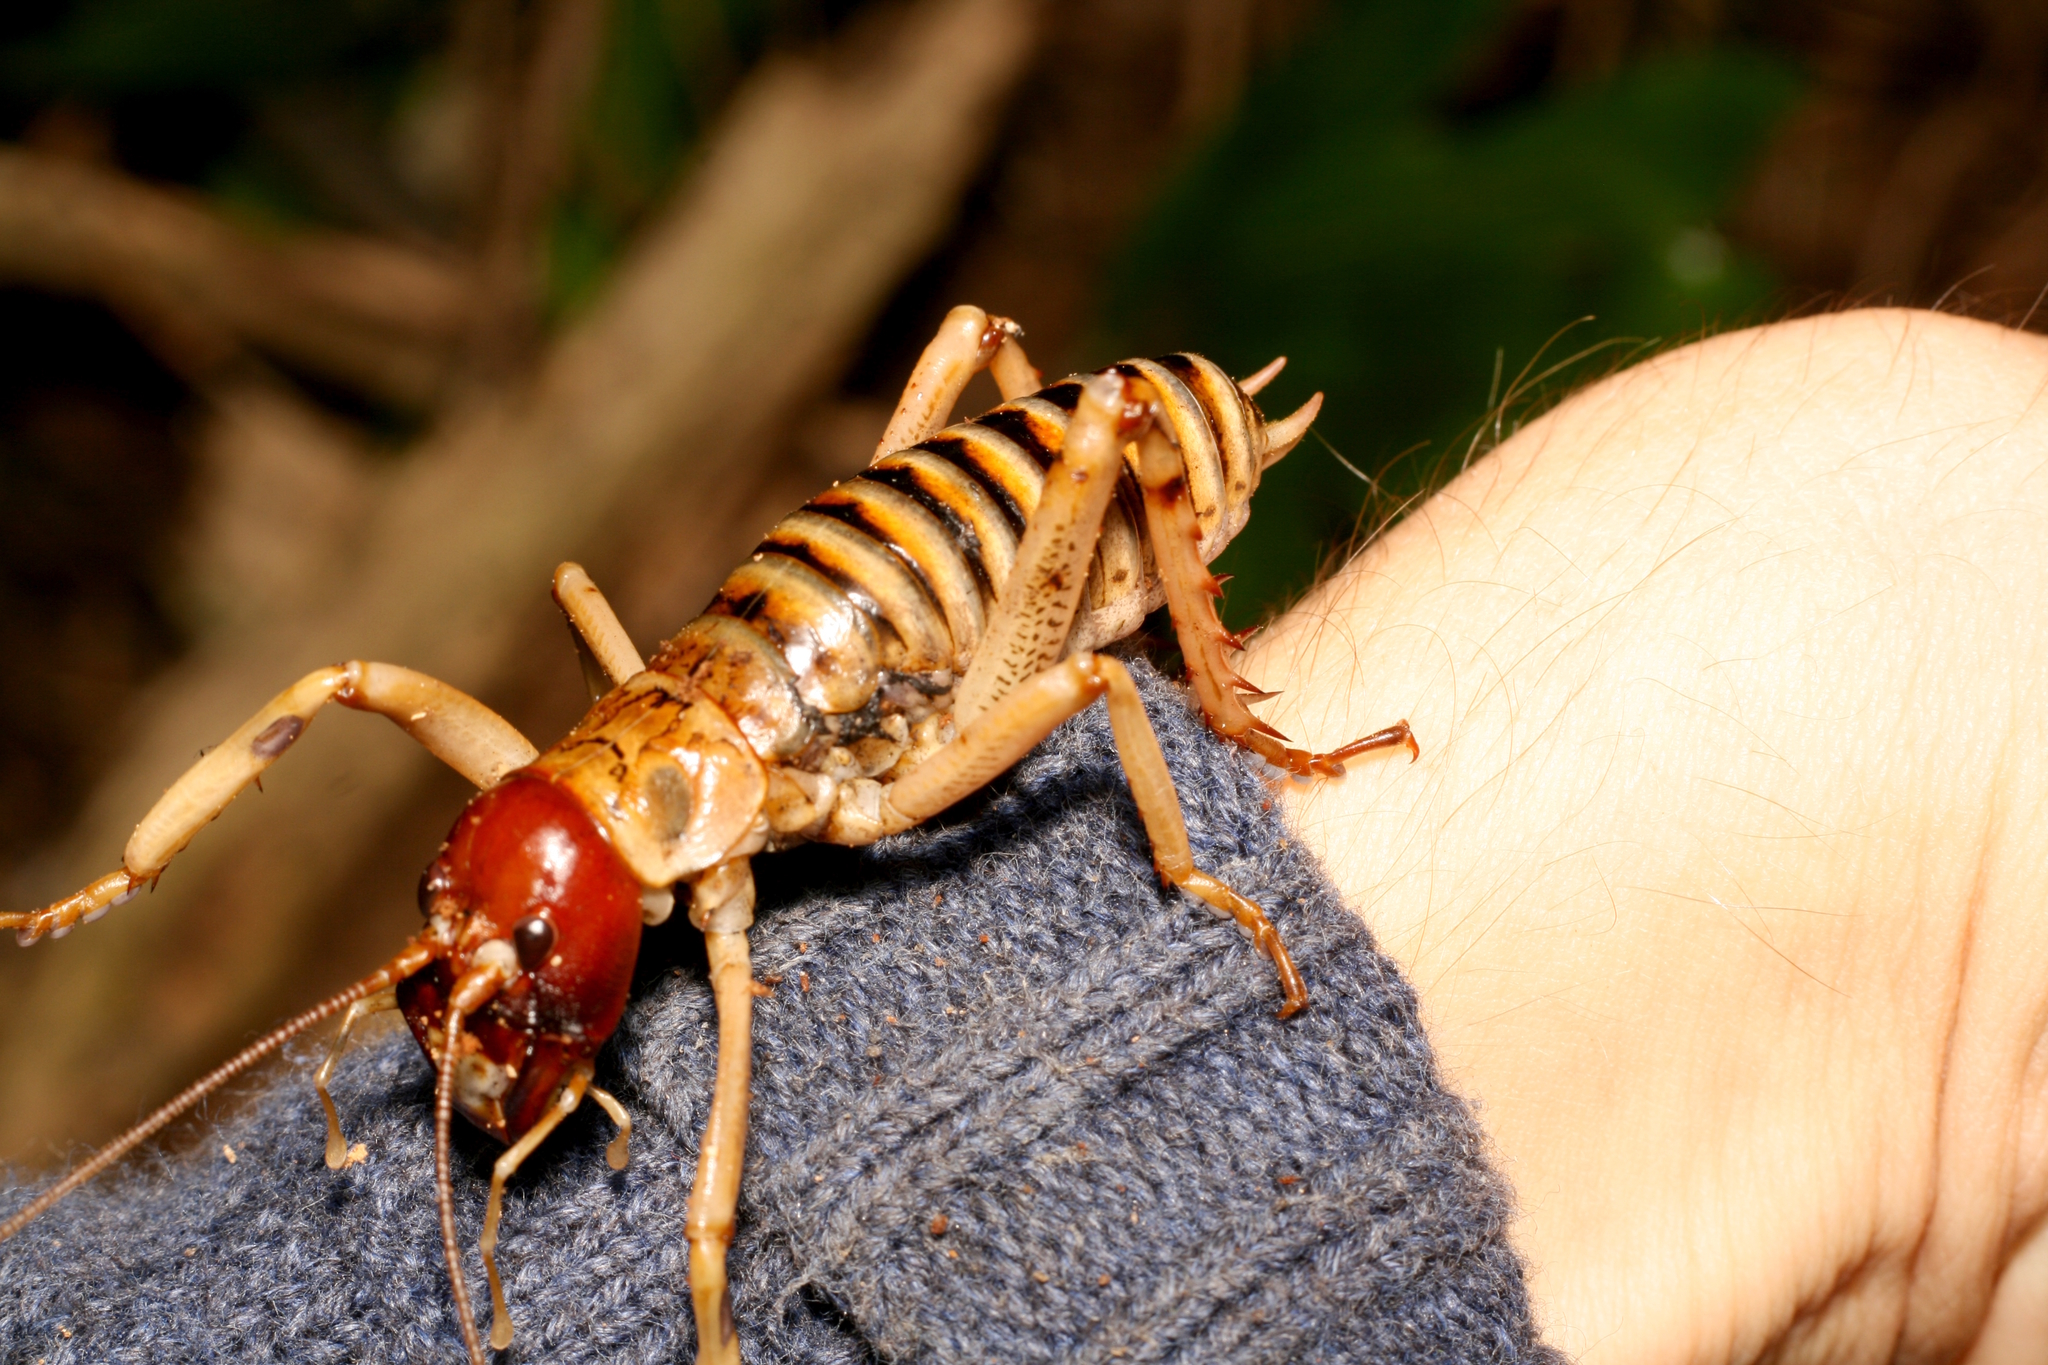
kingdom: Animalia
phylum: Arthropoda
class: Insecta
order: Orthoptera
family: Anostostomatidae
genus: Hemideina
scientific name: Hemideina femorata
